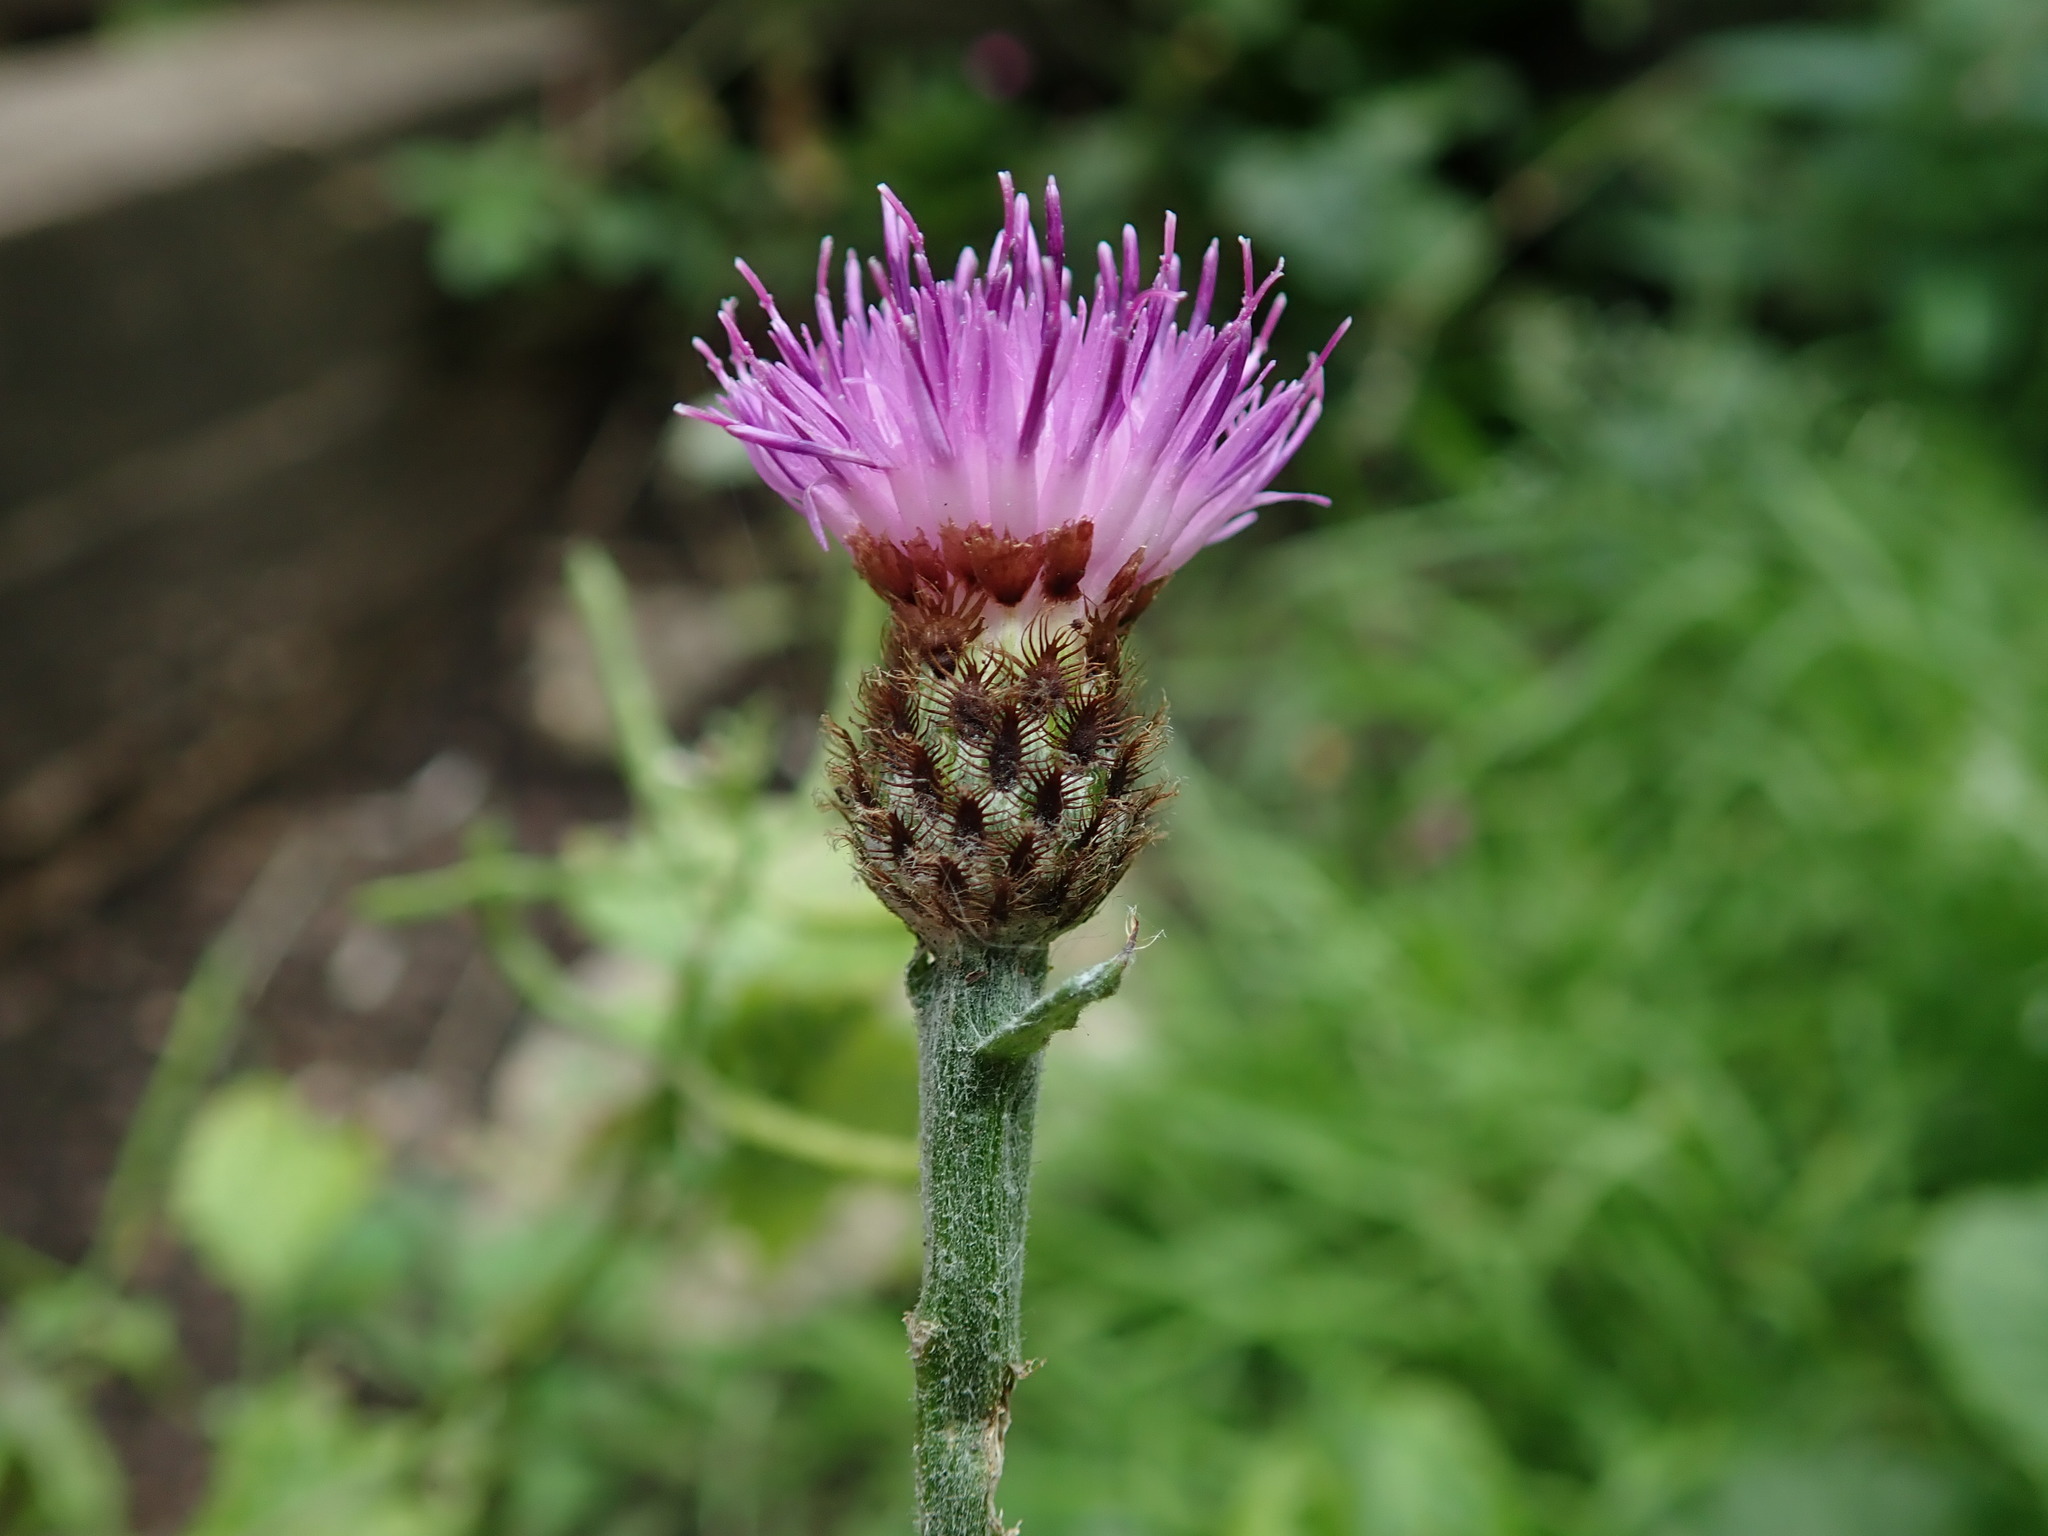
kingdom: Plantae
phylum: Tracheophyta
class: Magnoliopsida
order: Asterales
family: Asteraceae
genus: Centaurea
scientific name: Centaurea debeauxii
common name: Slender knapweed
